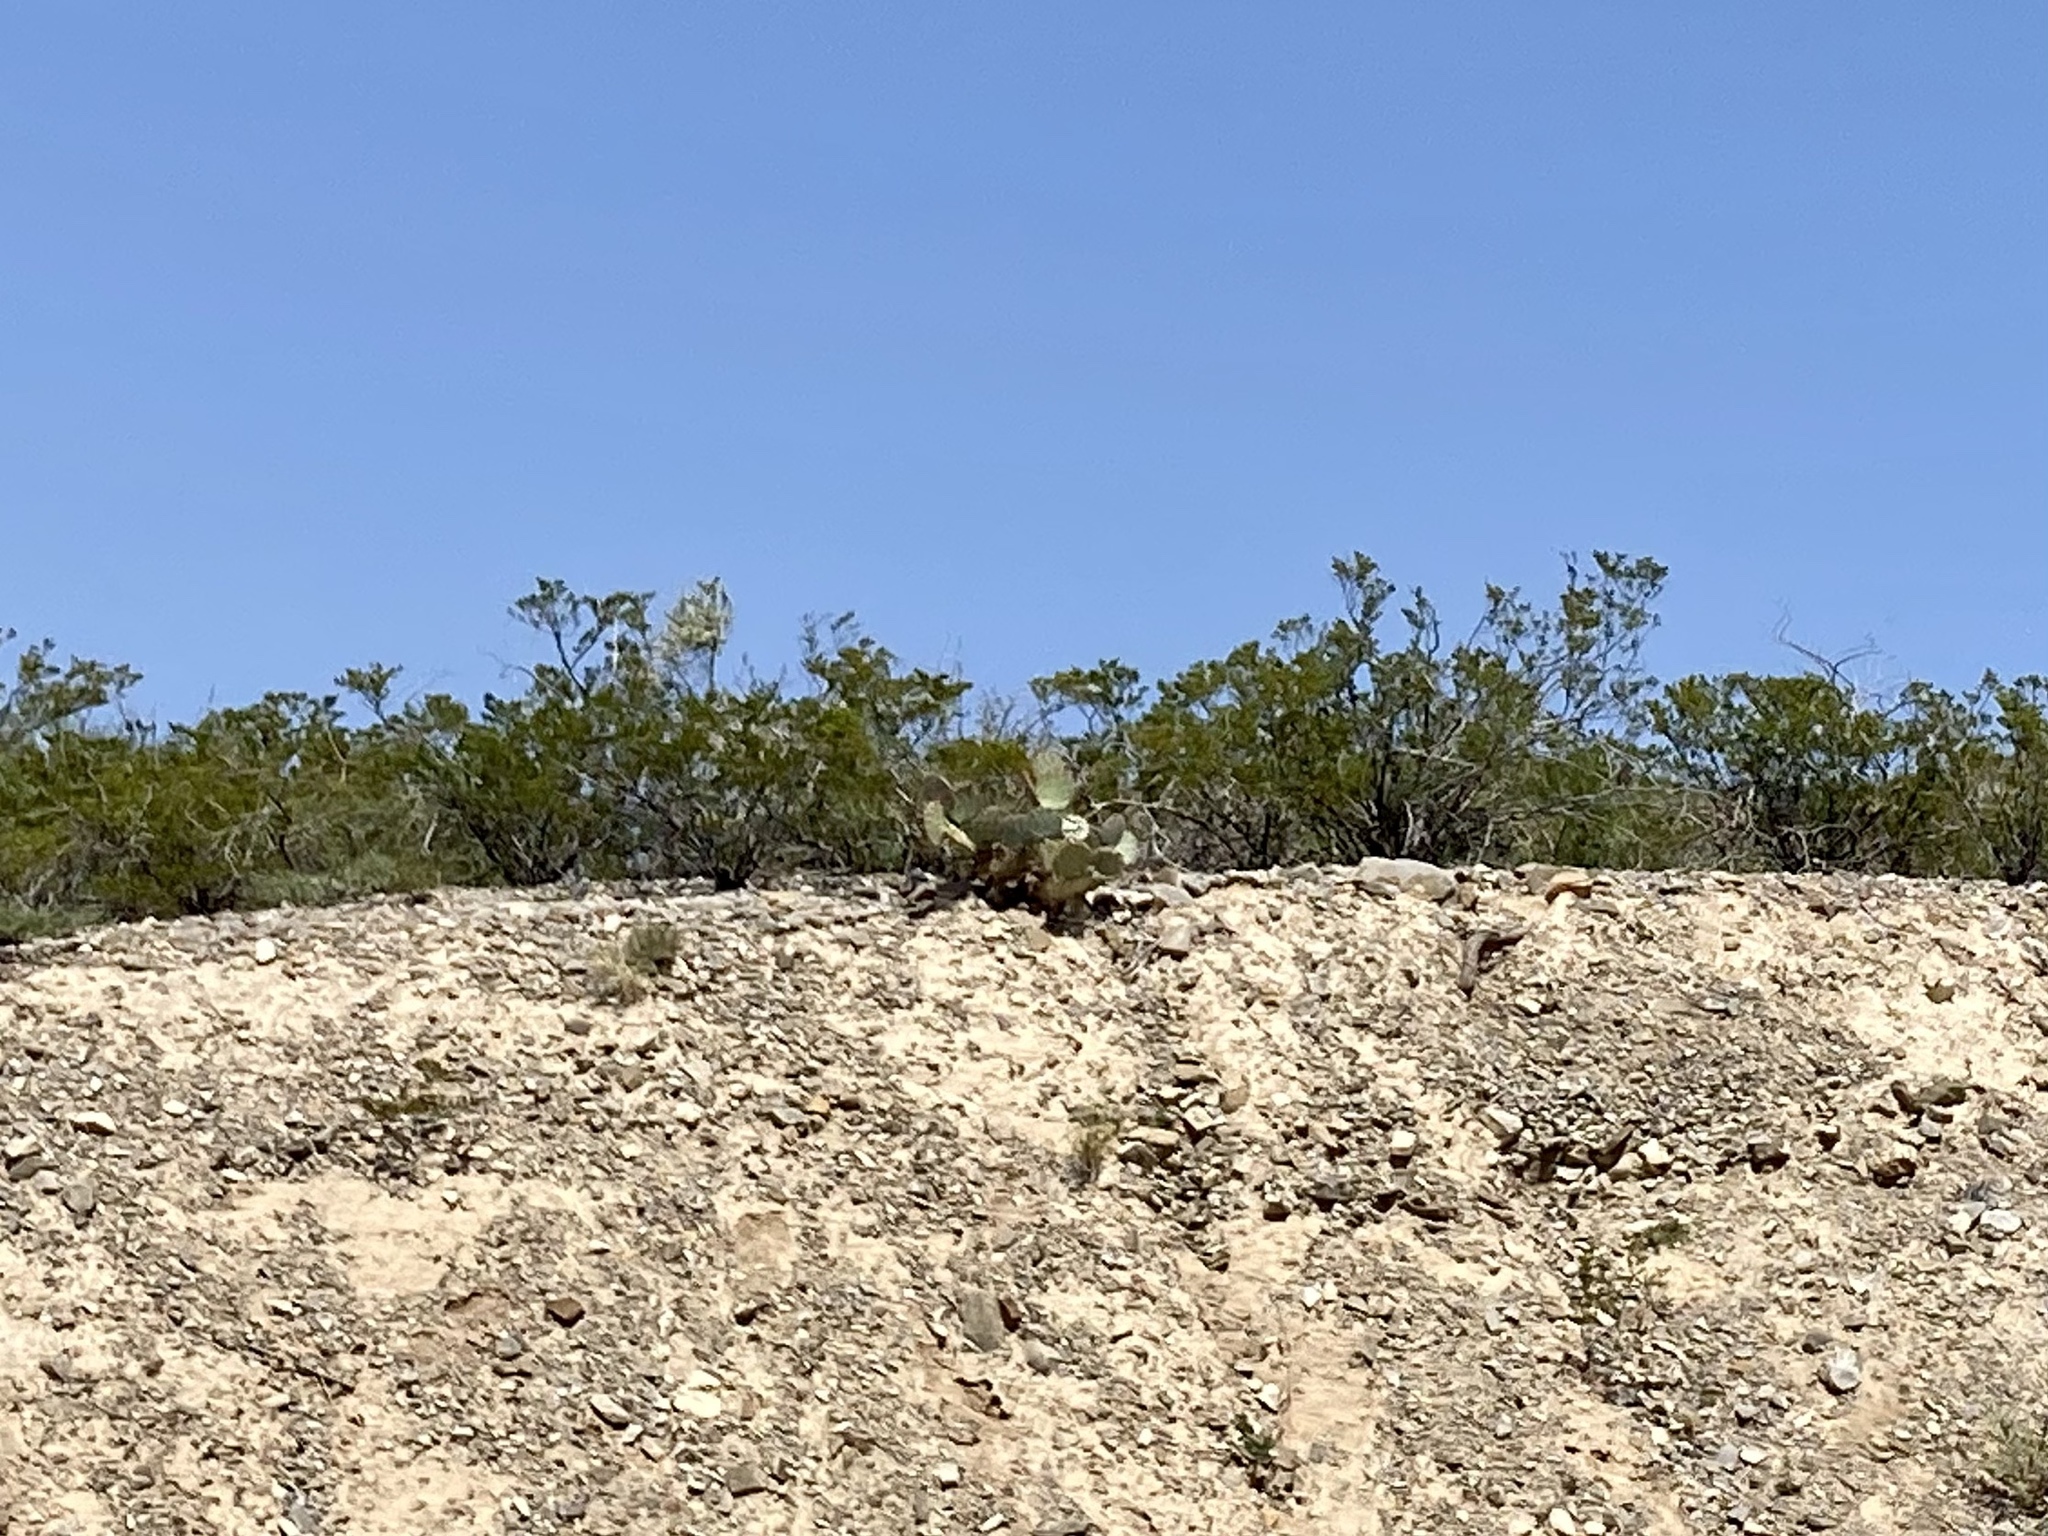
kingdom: Plantae
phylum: Tracheophyta
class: Magnoliopsida
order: Zygophyllales
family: Zygophyllaceae
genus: Larrea
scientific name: Larrea tridentata
